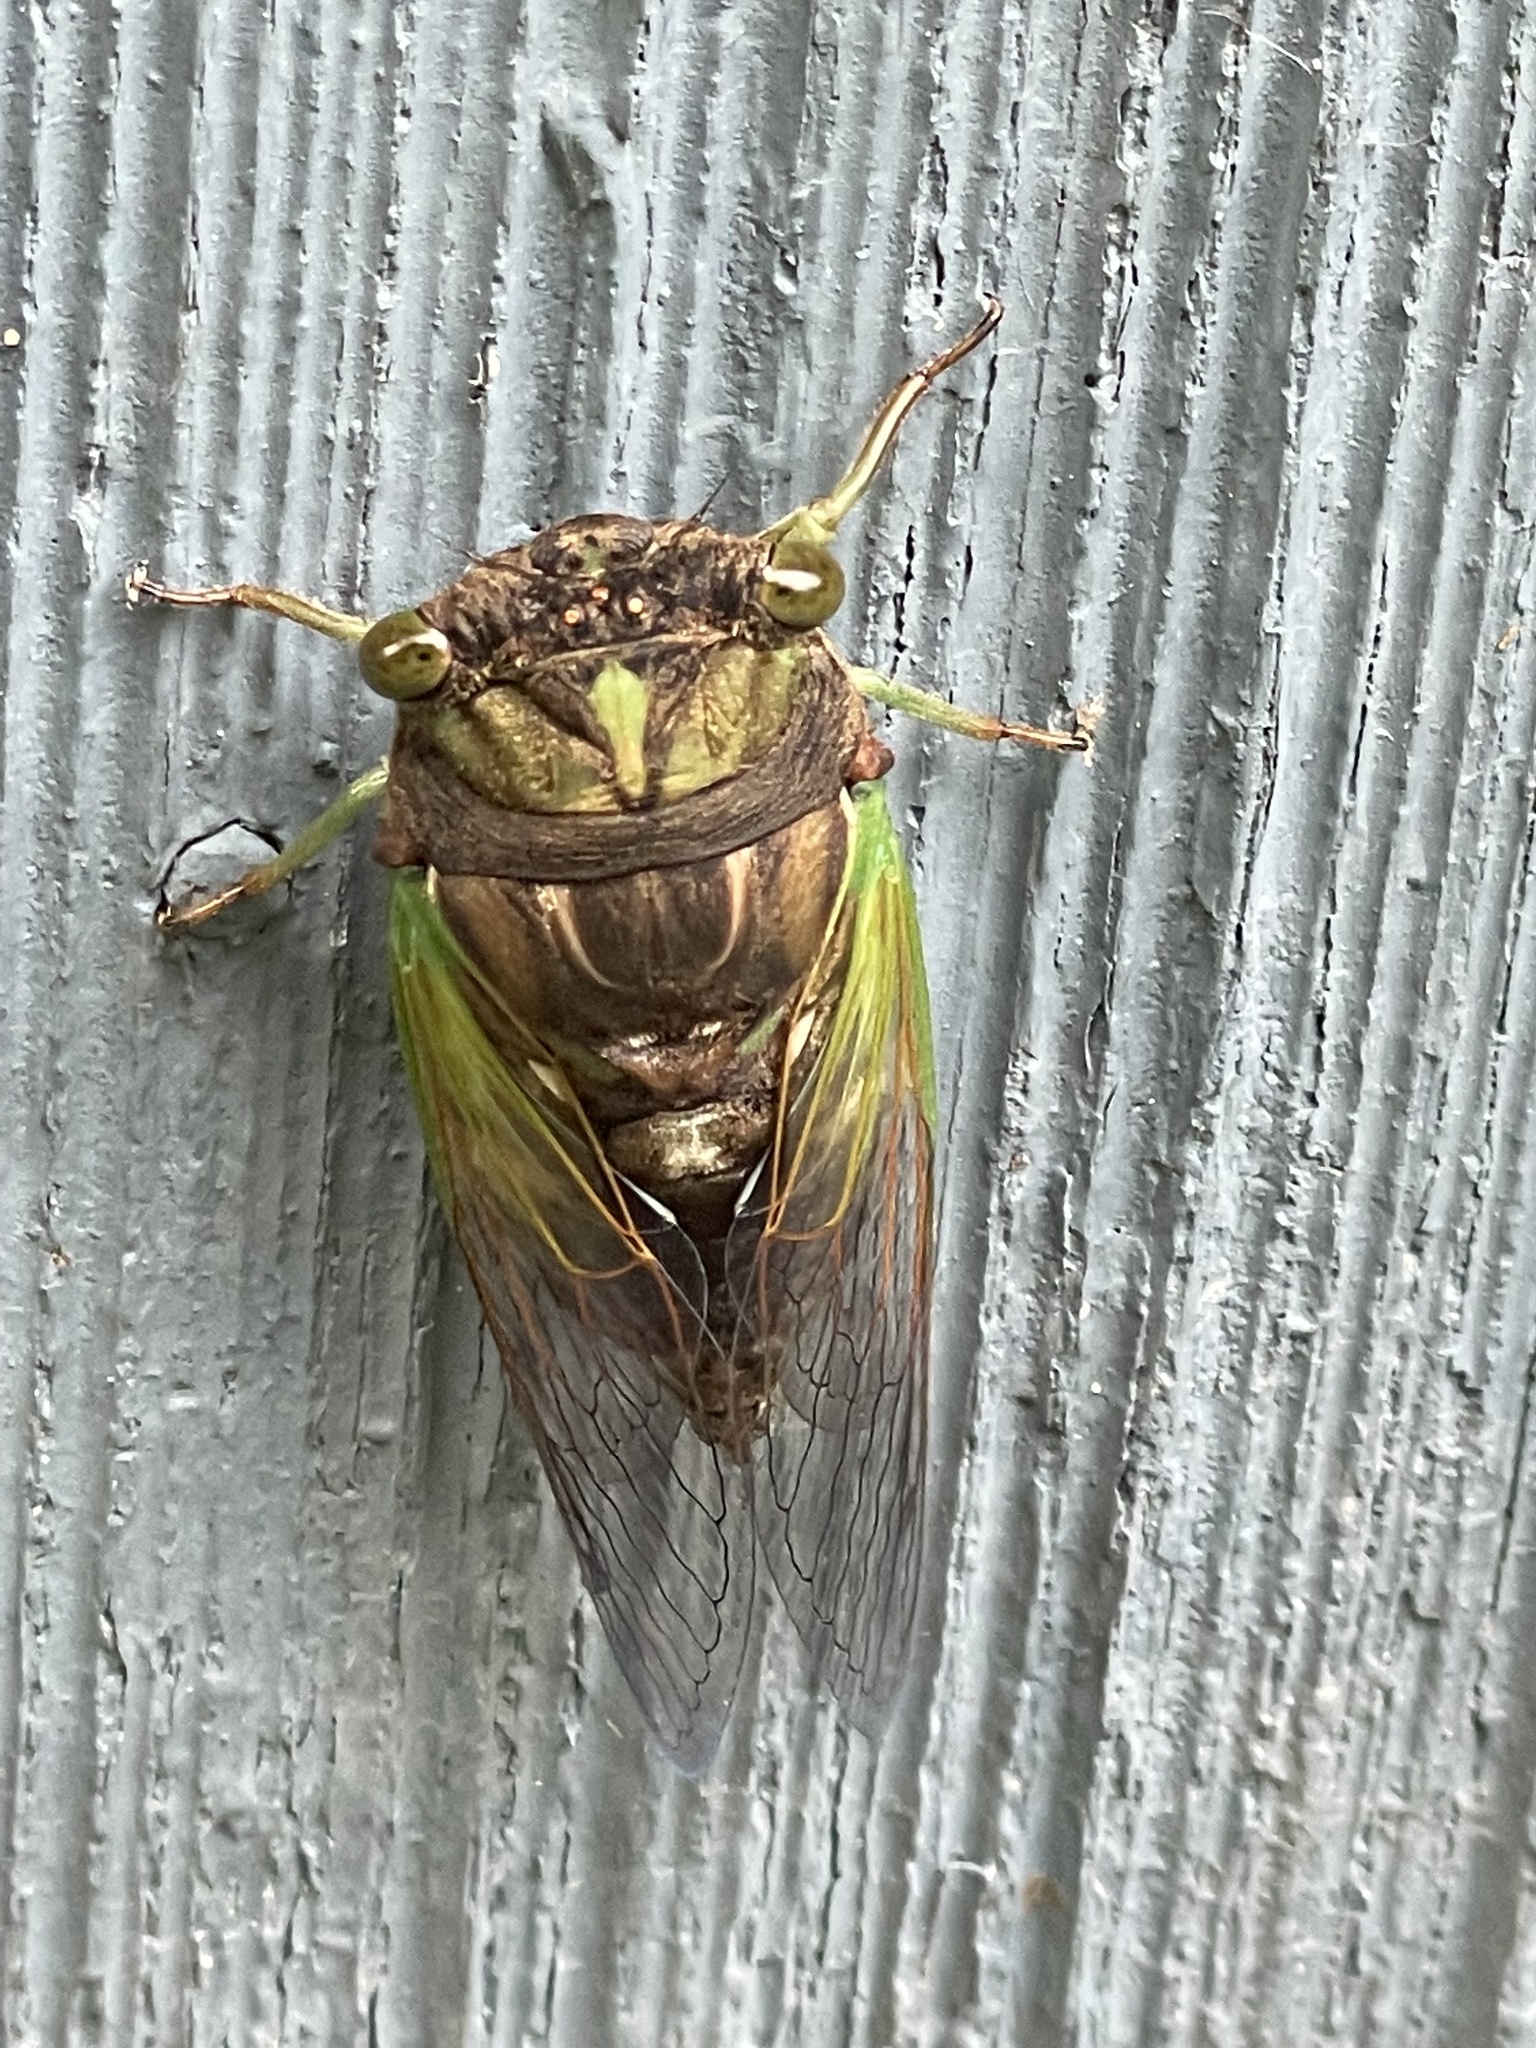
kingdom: Animalia
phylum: Arthropoda
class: Insecta
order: Hemiptera
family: Cicadidae
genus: Neotibicen
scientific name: Neotibicen tibicen
